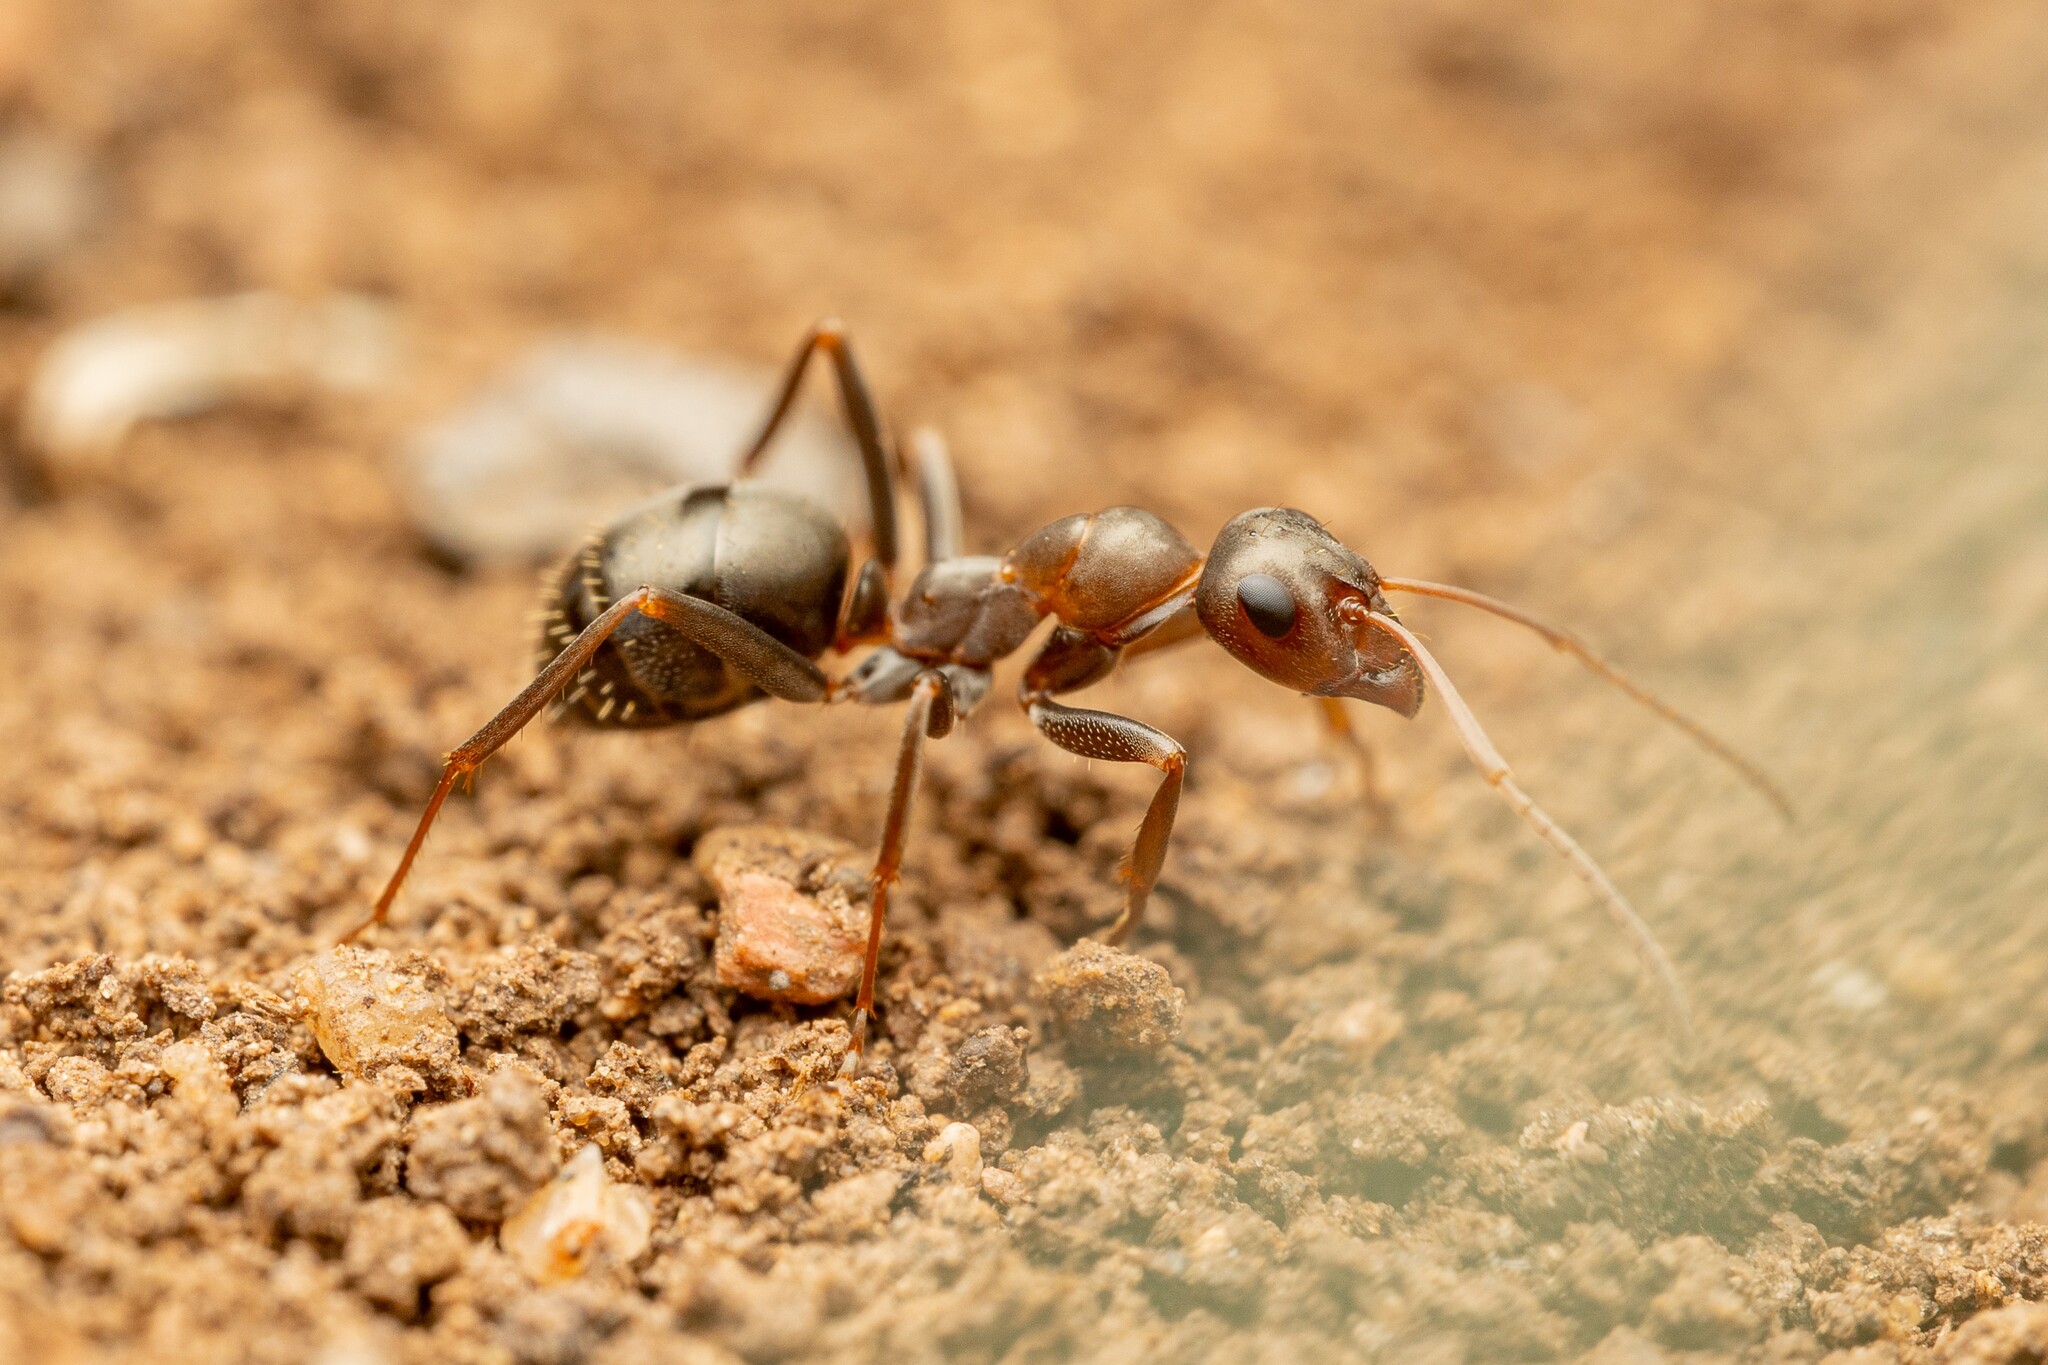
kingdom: Animalia
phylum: Arthropoda
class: Insecta
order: Hymenoptera
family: Formicidae
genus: Formica
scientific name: Formica gnava
